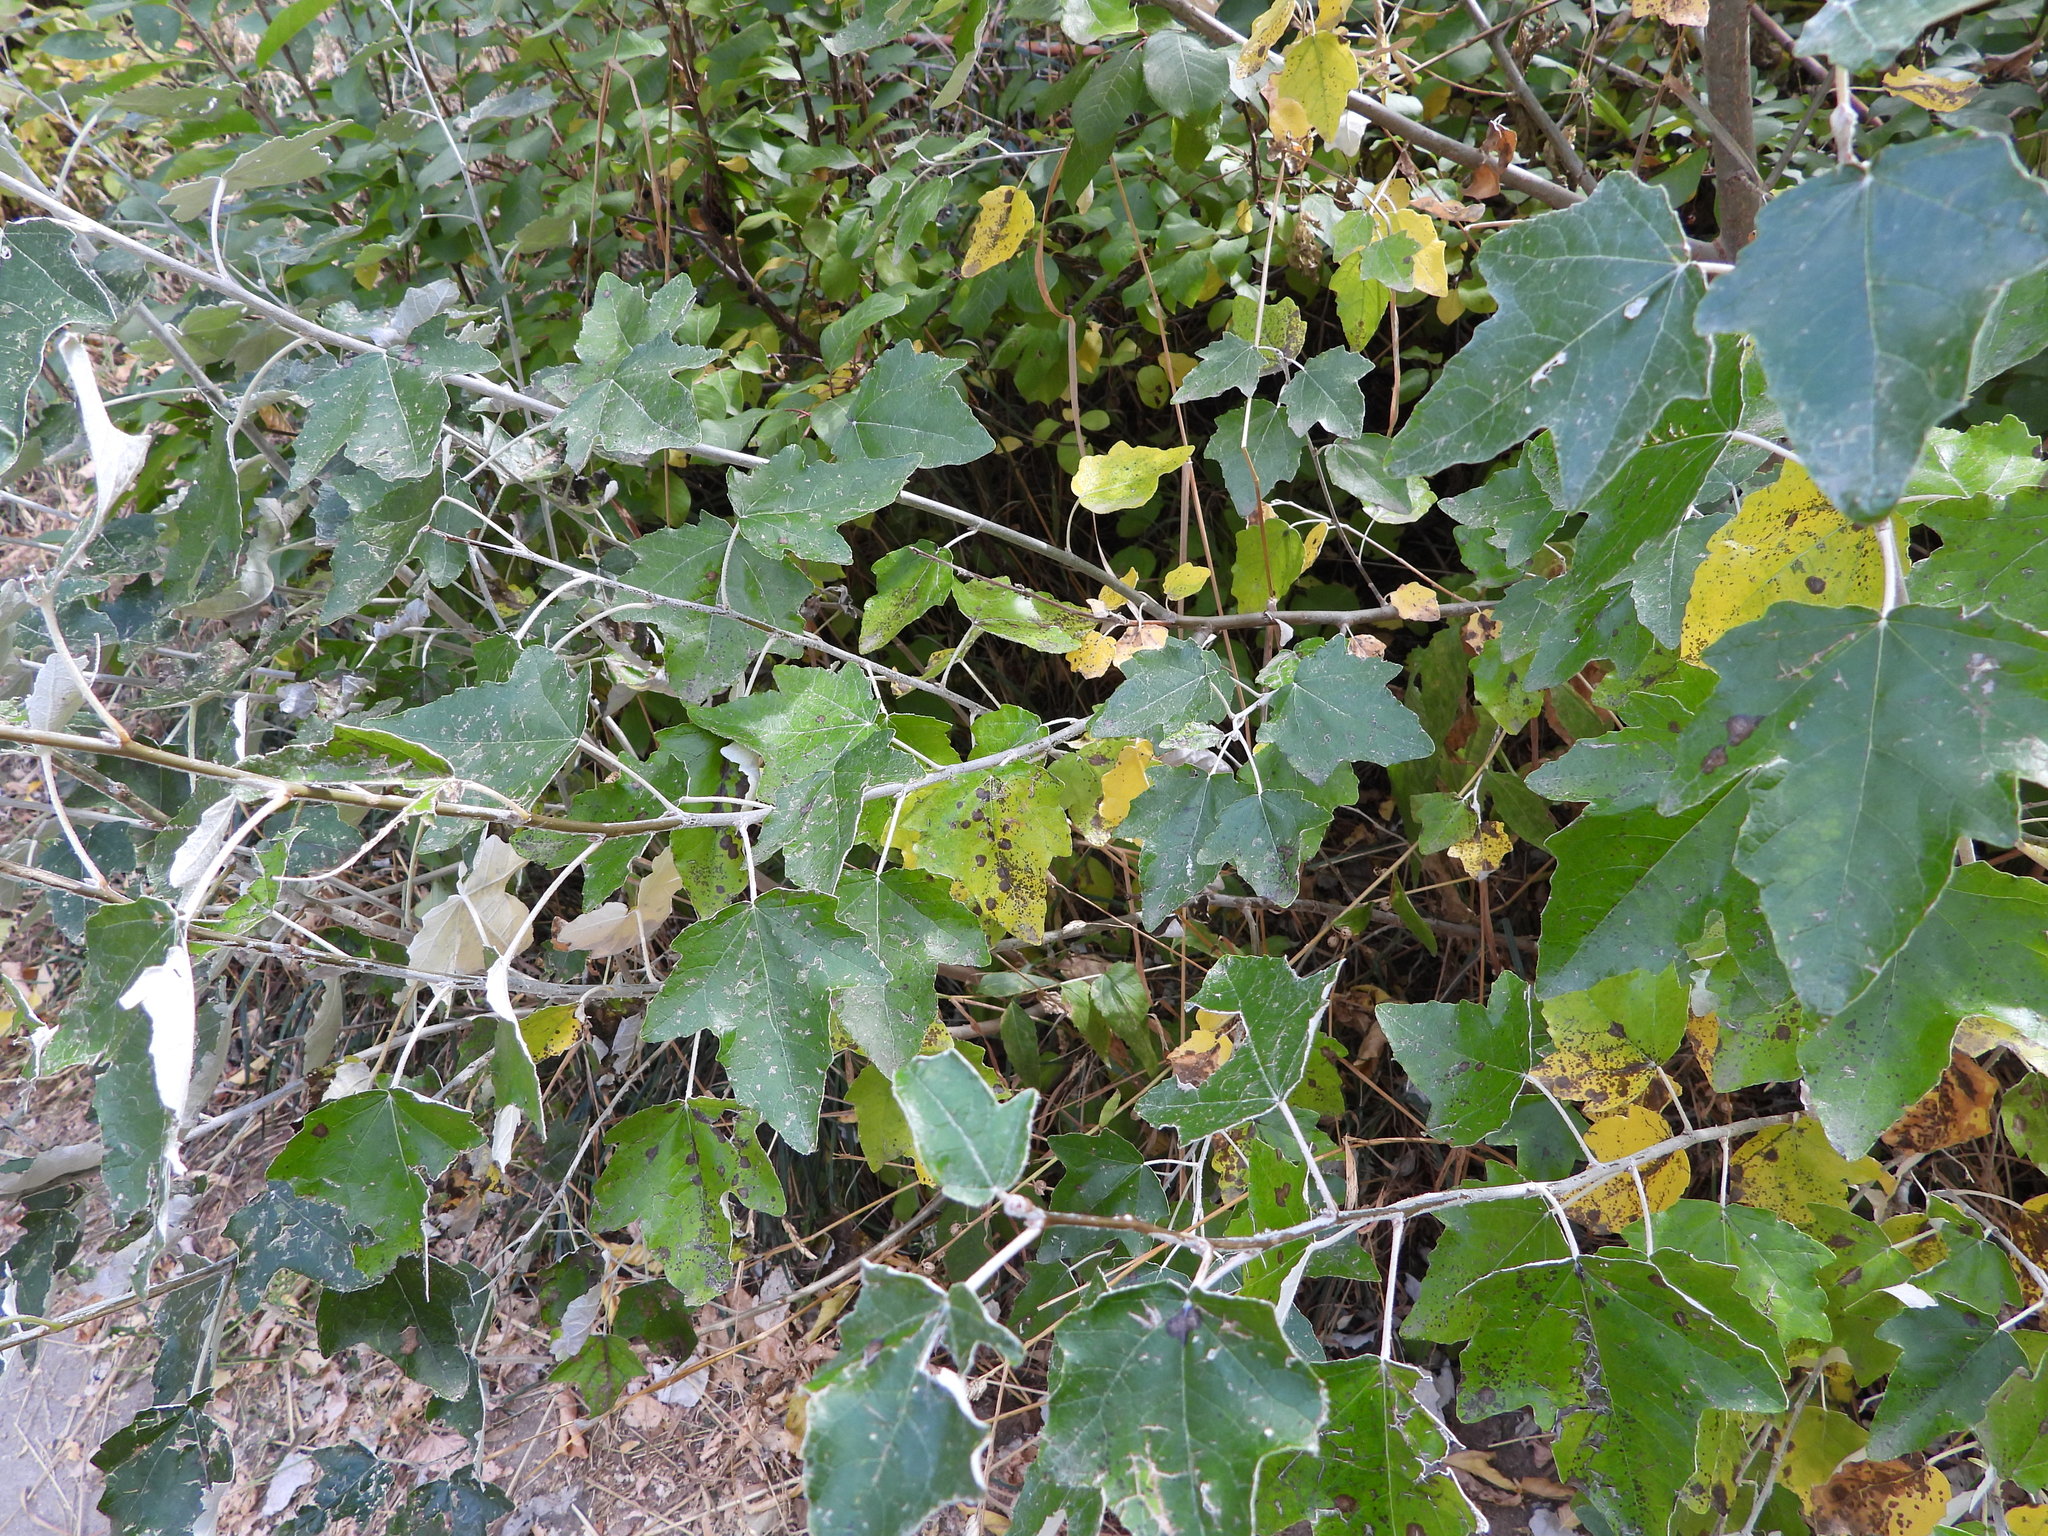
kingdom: Plantae
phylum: Tracheophyta
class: Magnoliopsida
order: Malpighiales
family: Salicaceae
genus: Populus
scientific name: Populus alba
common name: White poplar
